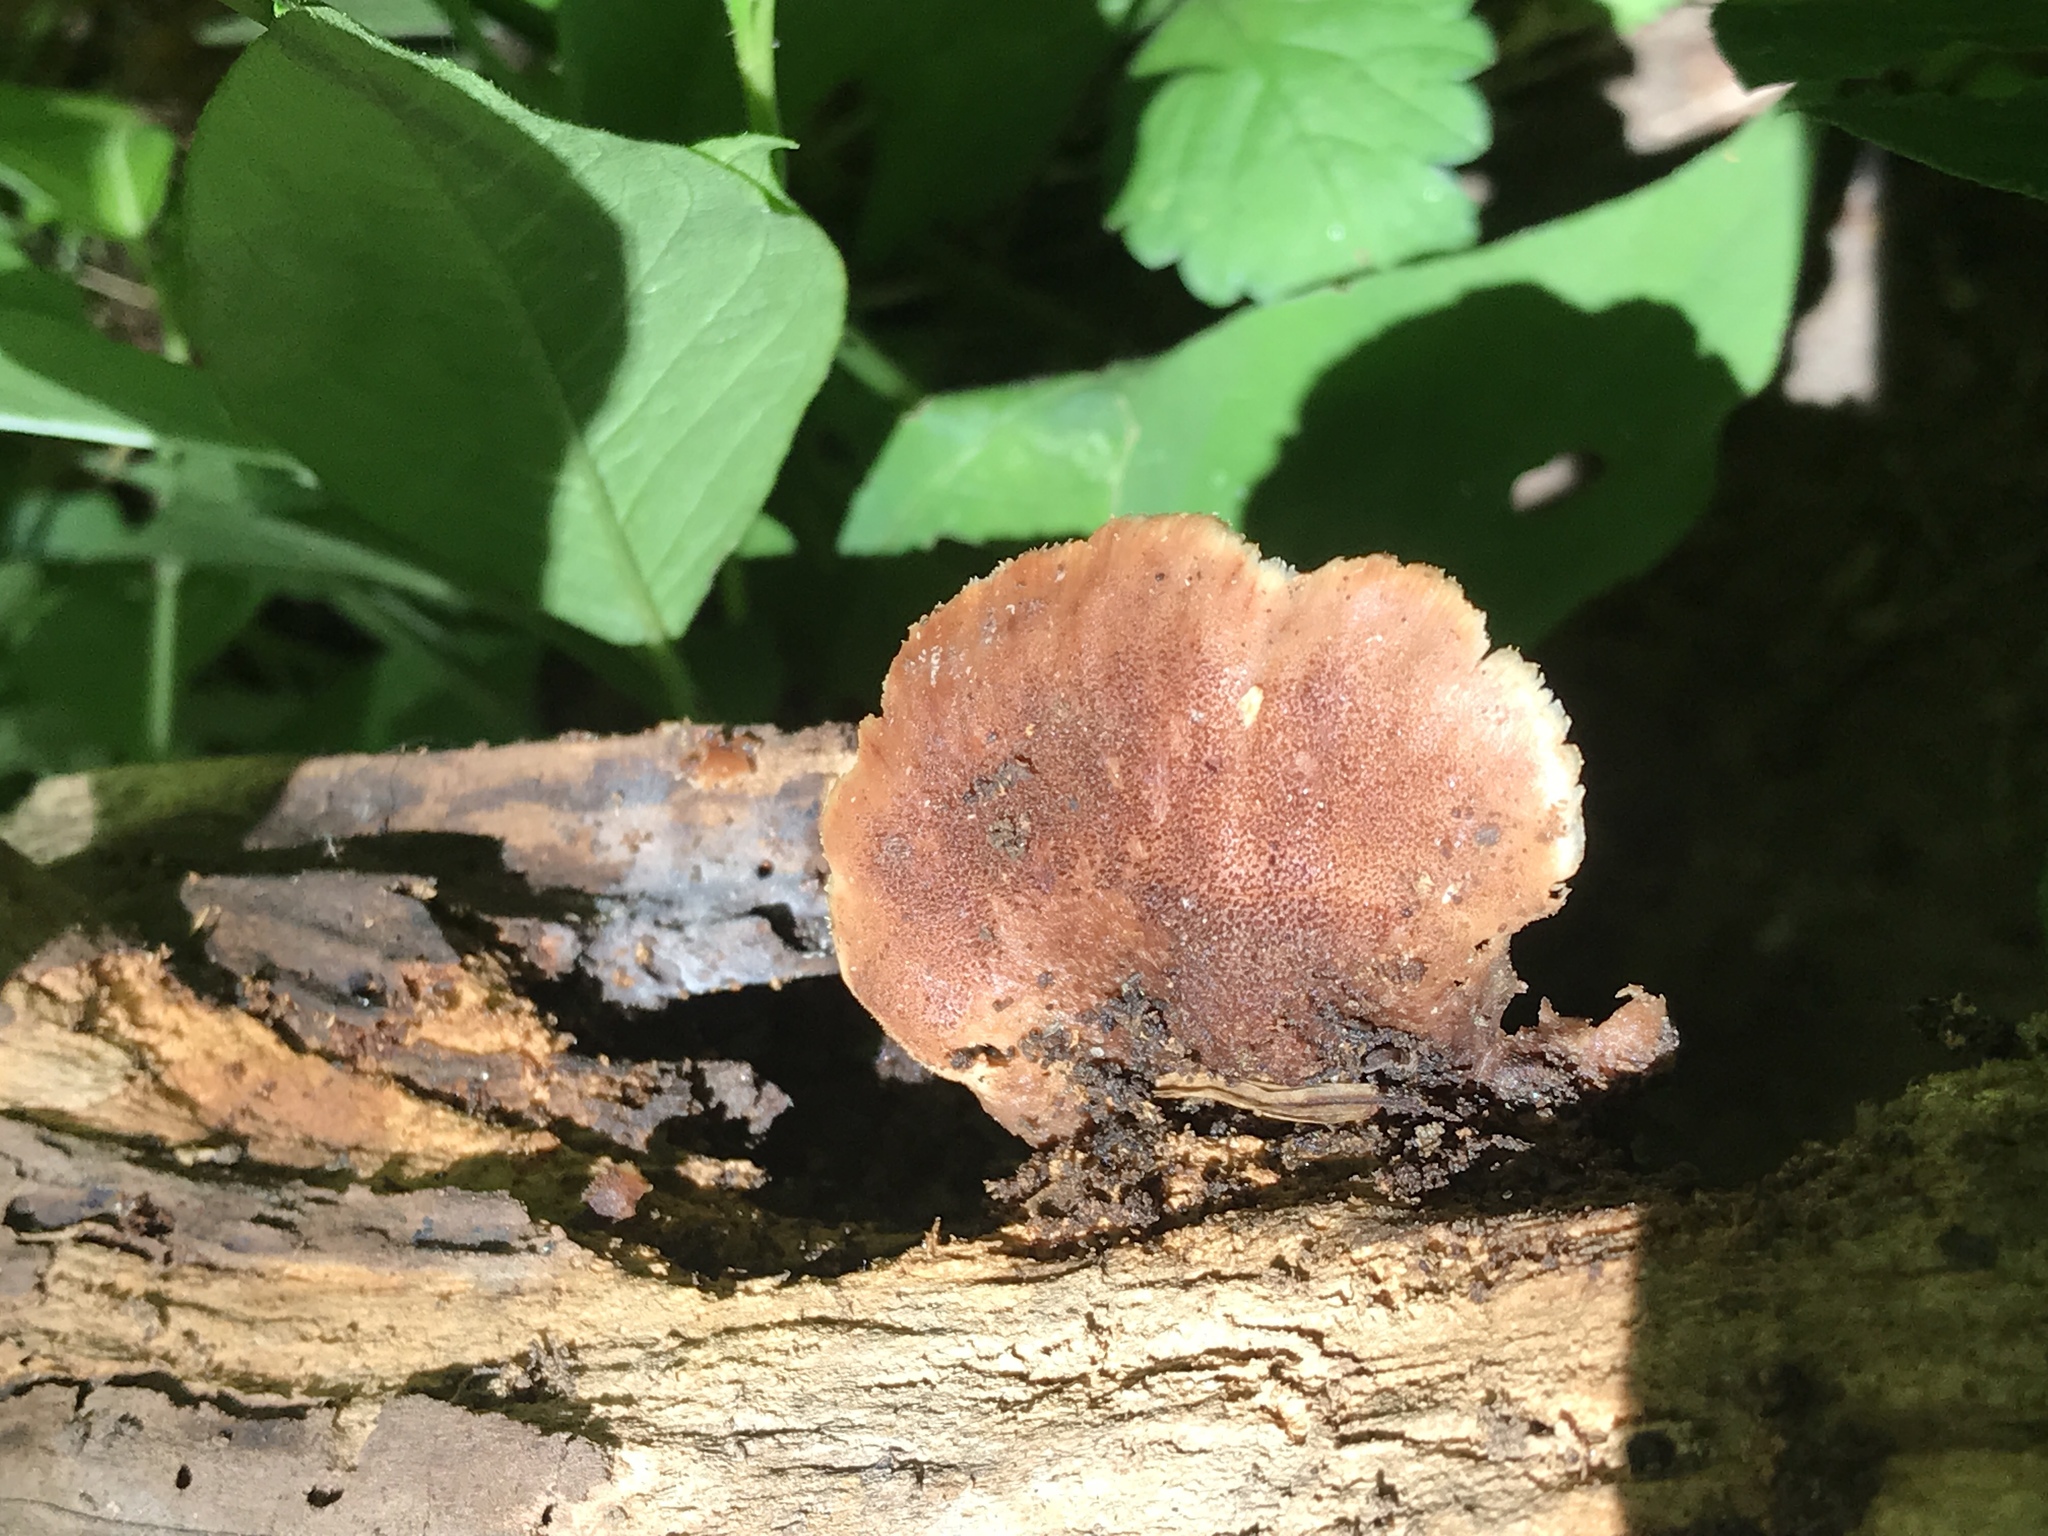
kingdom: Fungi
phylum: Basidiomycota
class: Agaricomycetes
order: Russulales
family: Auriscalpiaceae
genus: Lentinellus
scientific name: Lentinellus ursinus
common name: Bear lentinus
